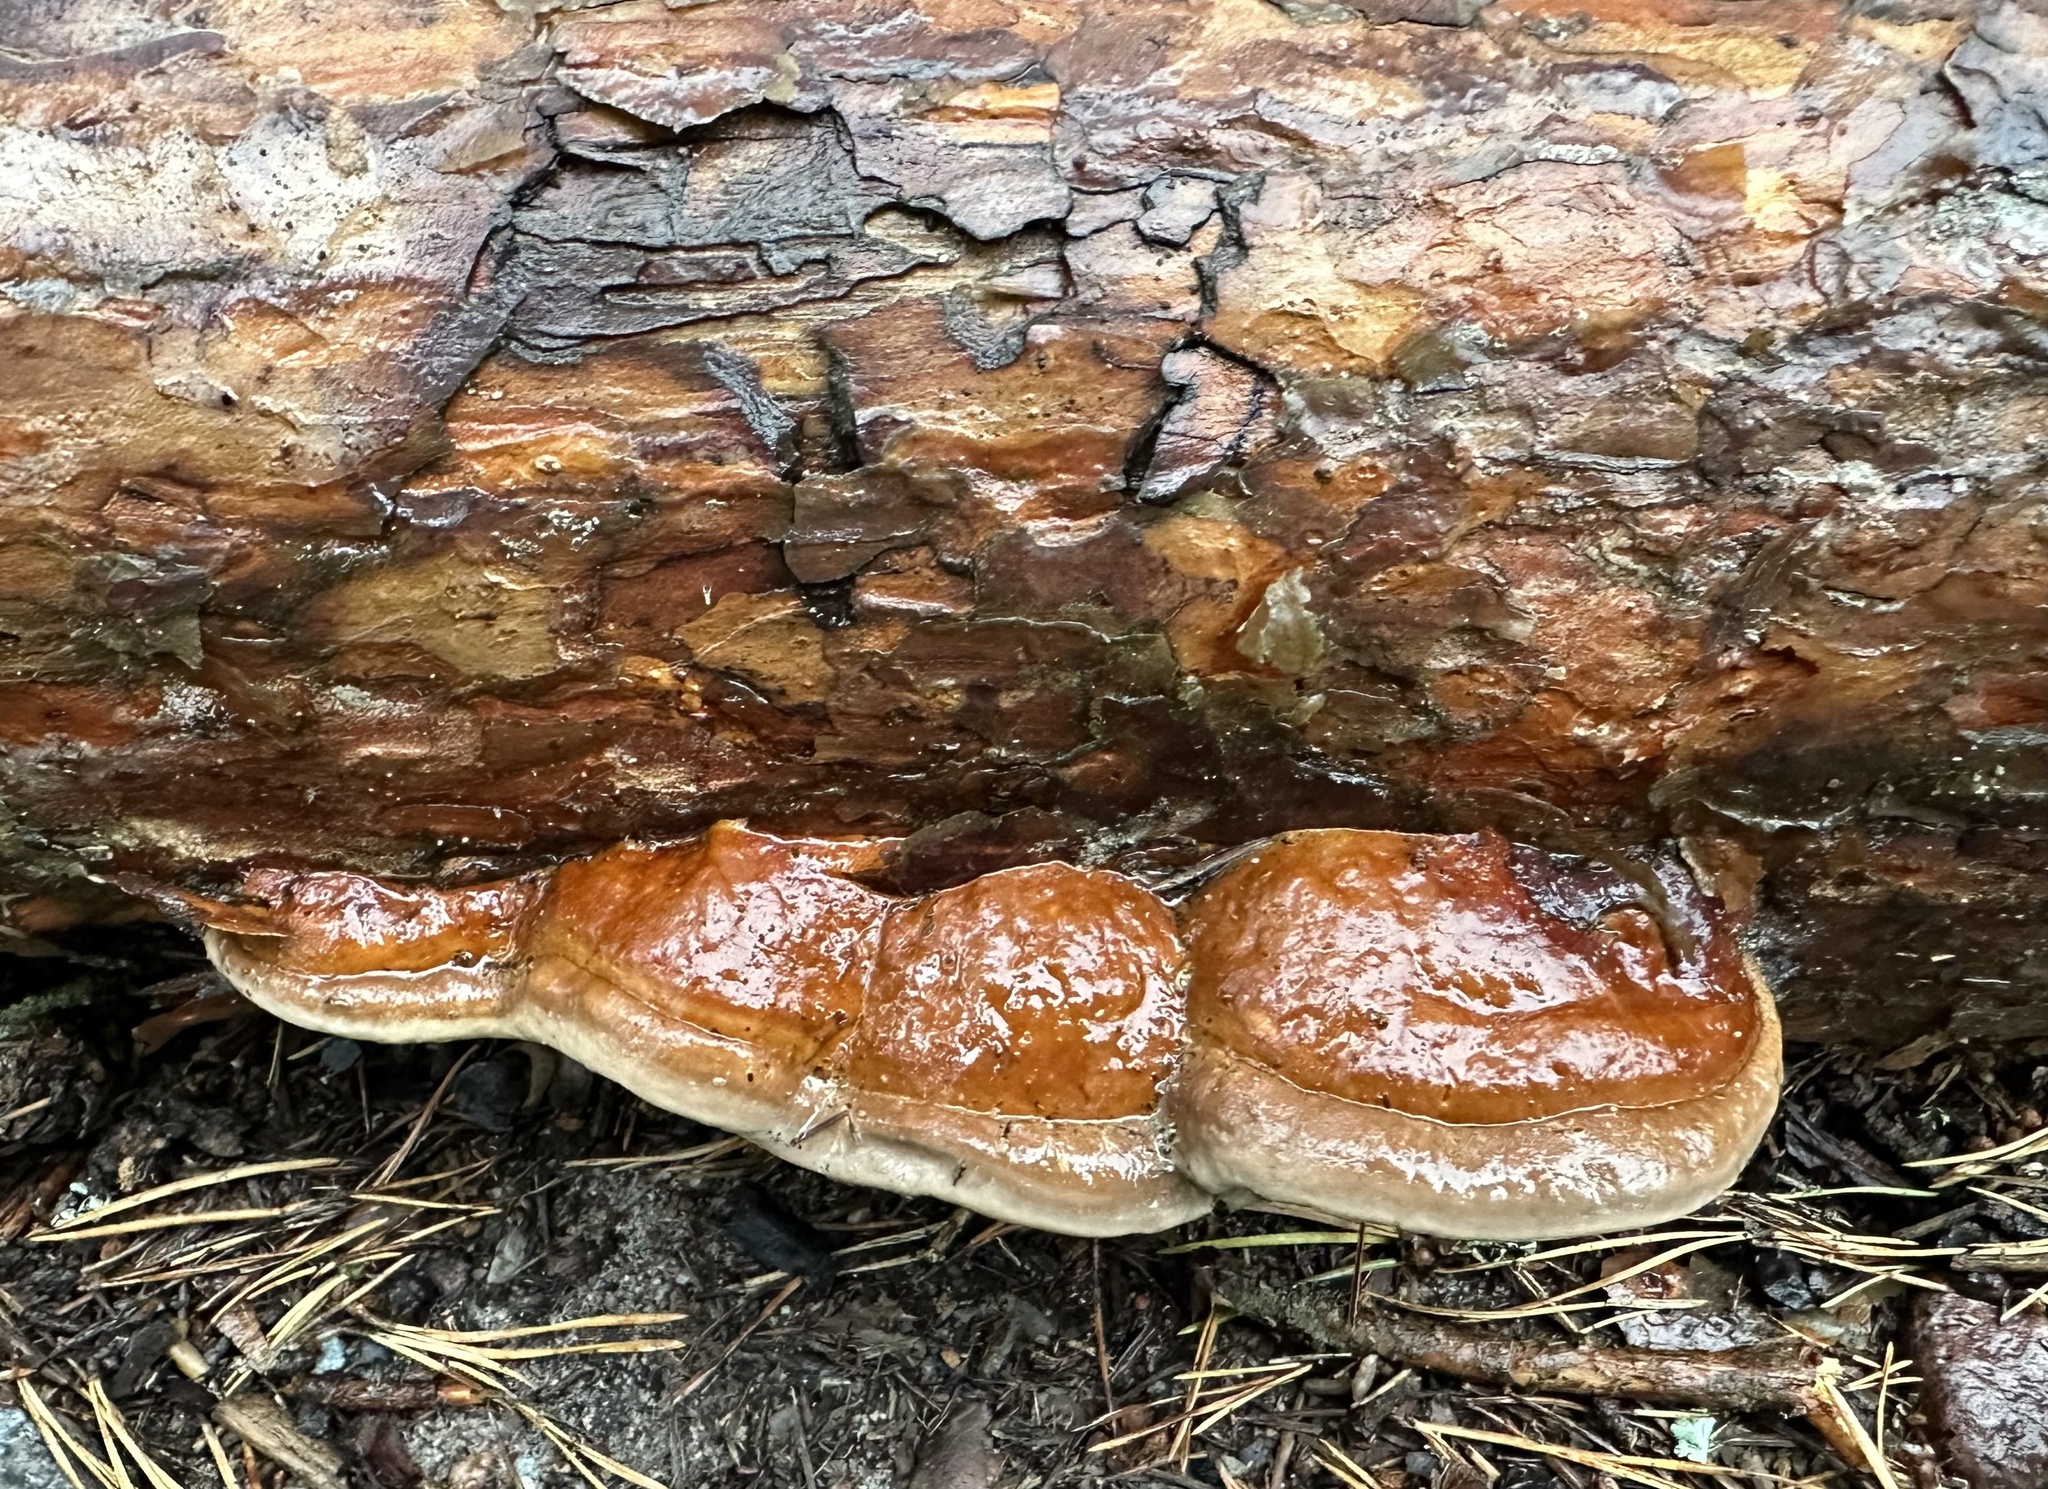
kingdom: Fungi
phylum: Basidiomycota
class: Agaricomycetes
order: Polyporales
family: Fomitopsidaceae
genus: Fomitopsis
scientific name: Fomitopsis pinicola
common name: Red-belted bracket
